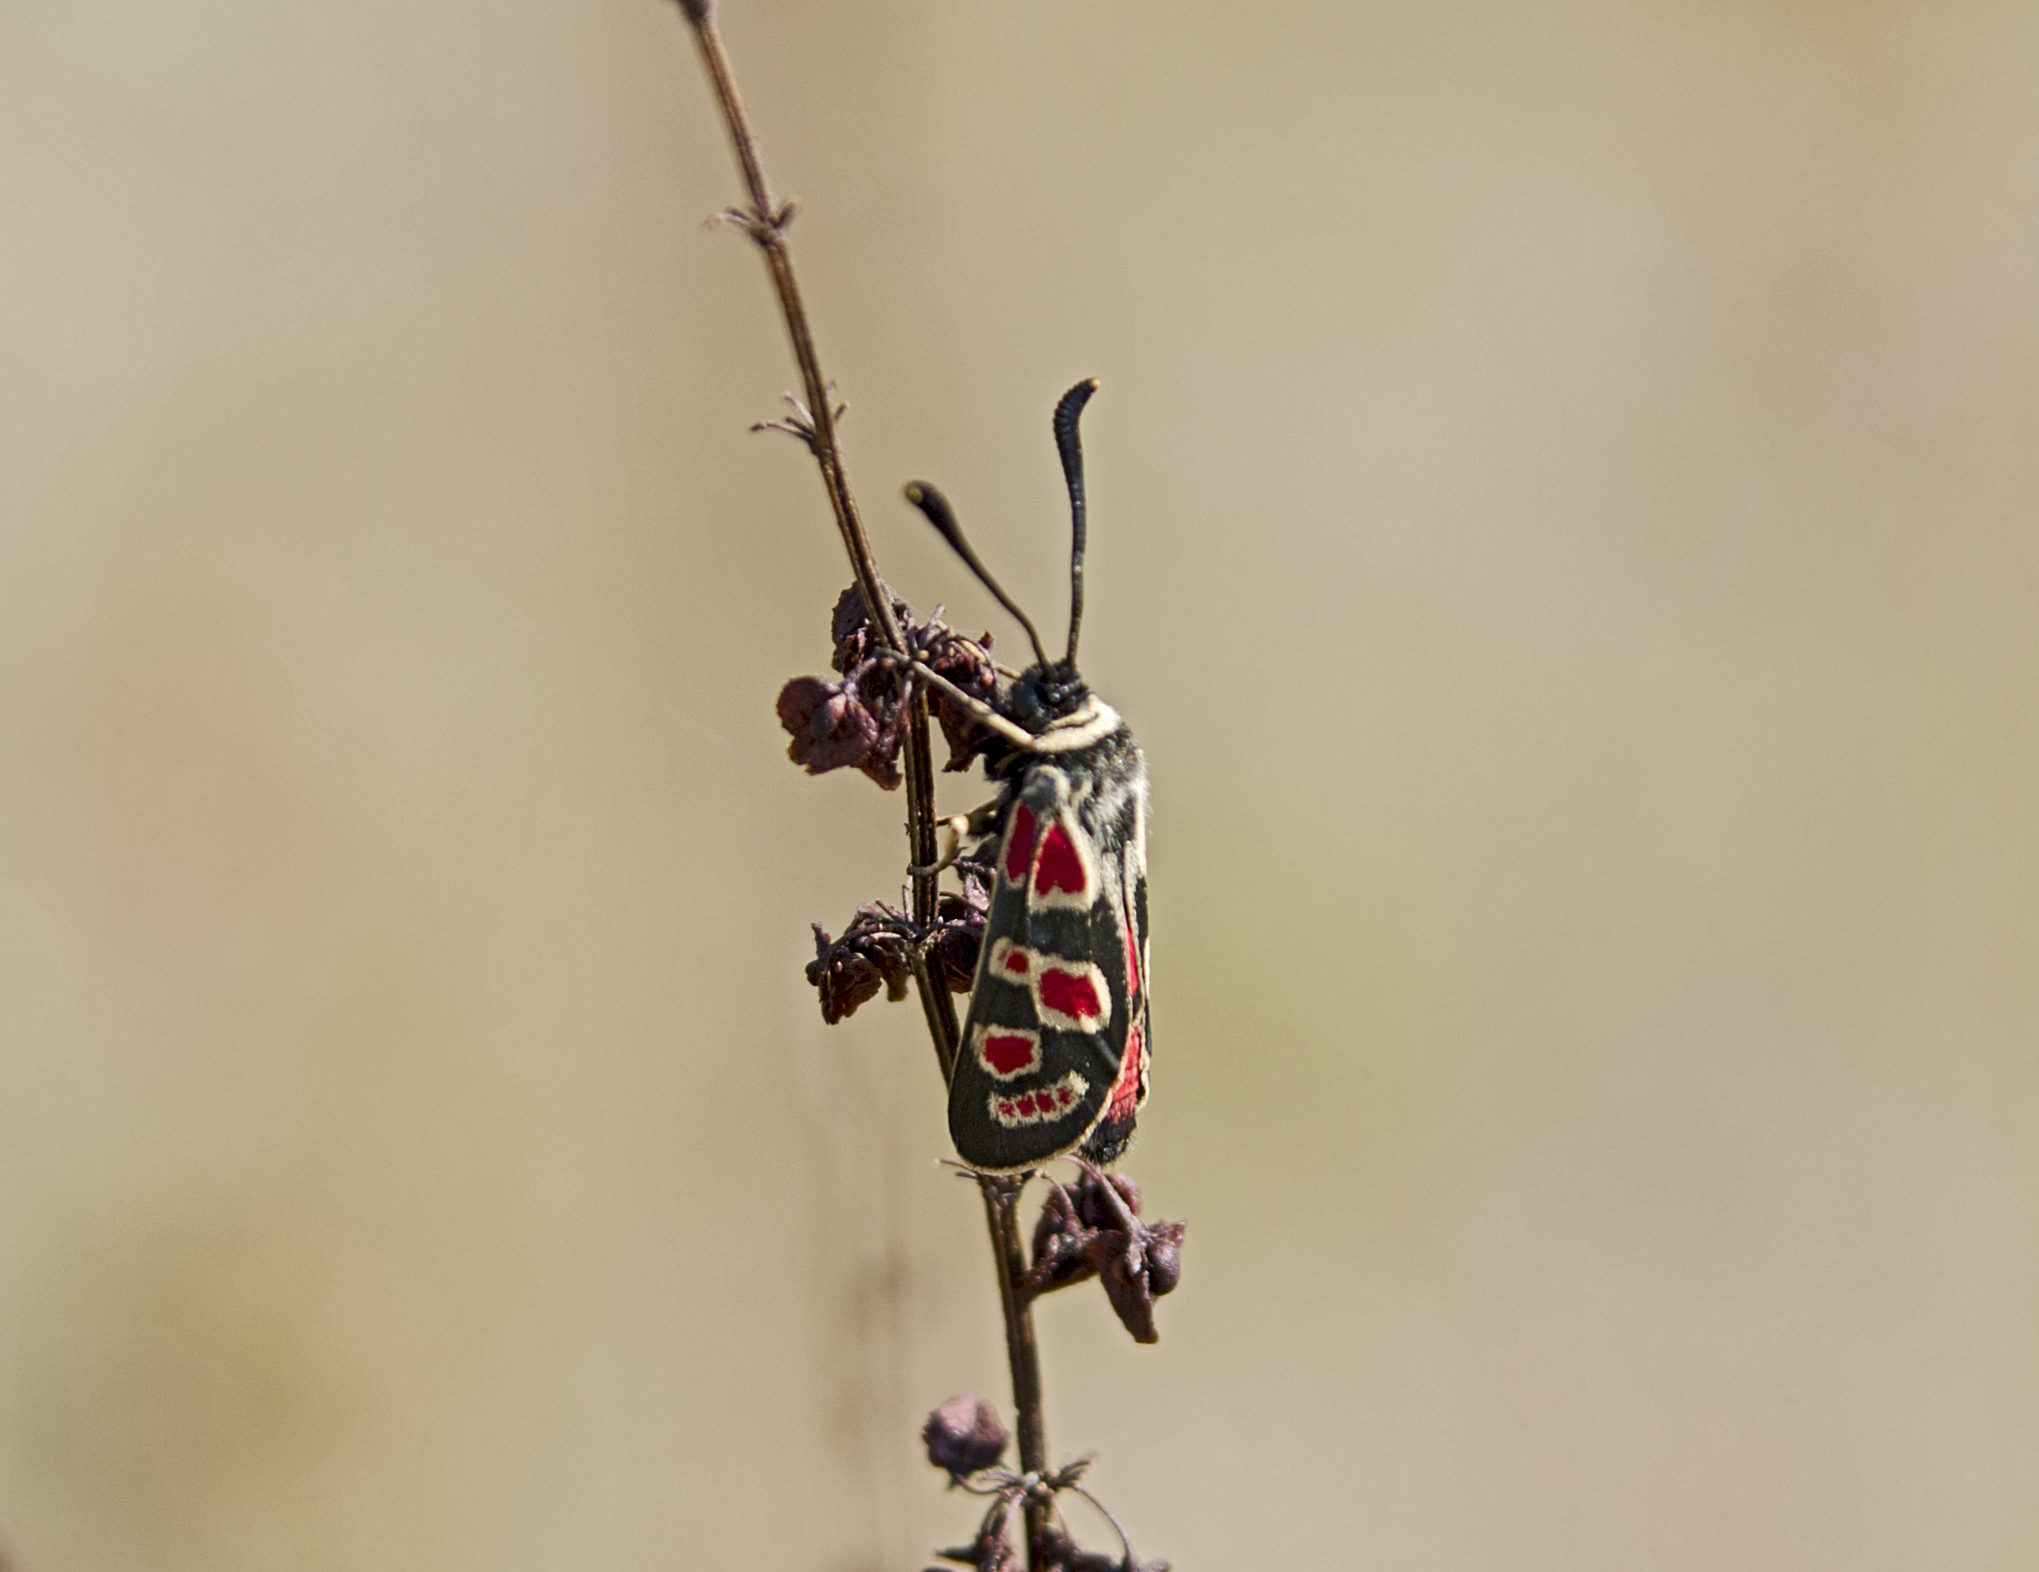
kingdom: Animalia
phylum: Arthropoda
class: Insecta
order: Lepidoptera
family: Zygaenidae
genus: Zygaena
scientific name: Zygaena carniolica
